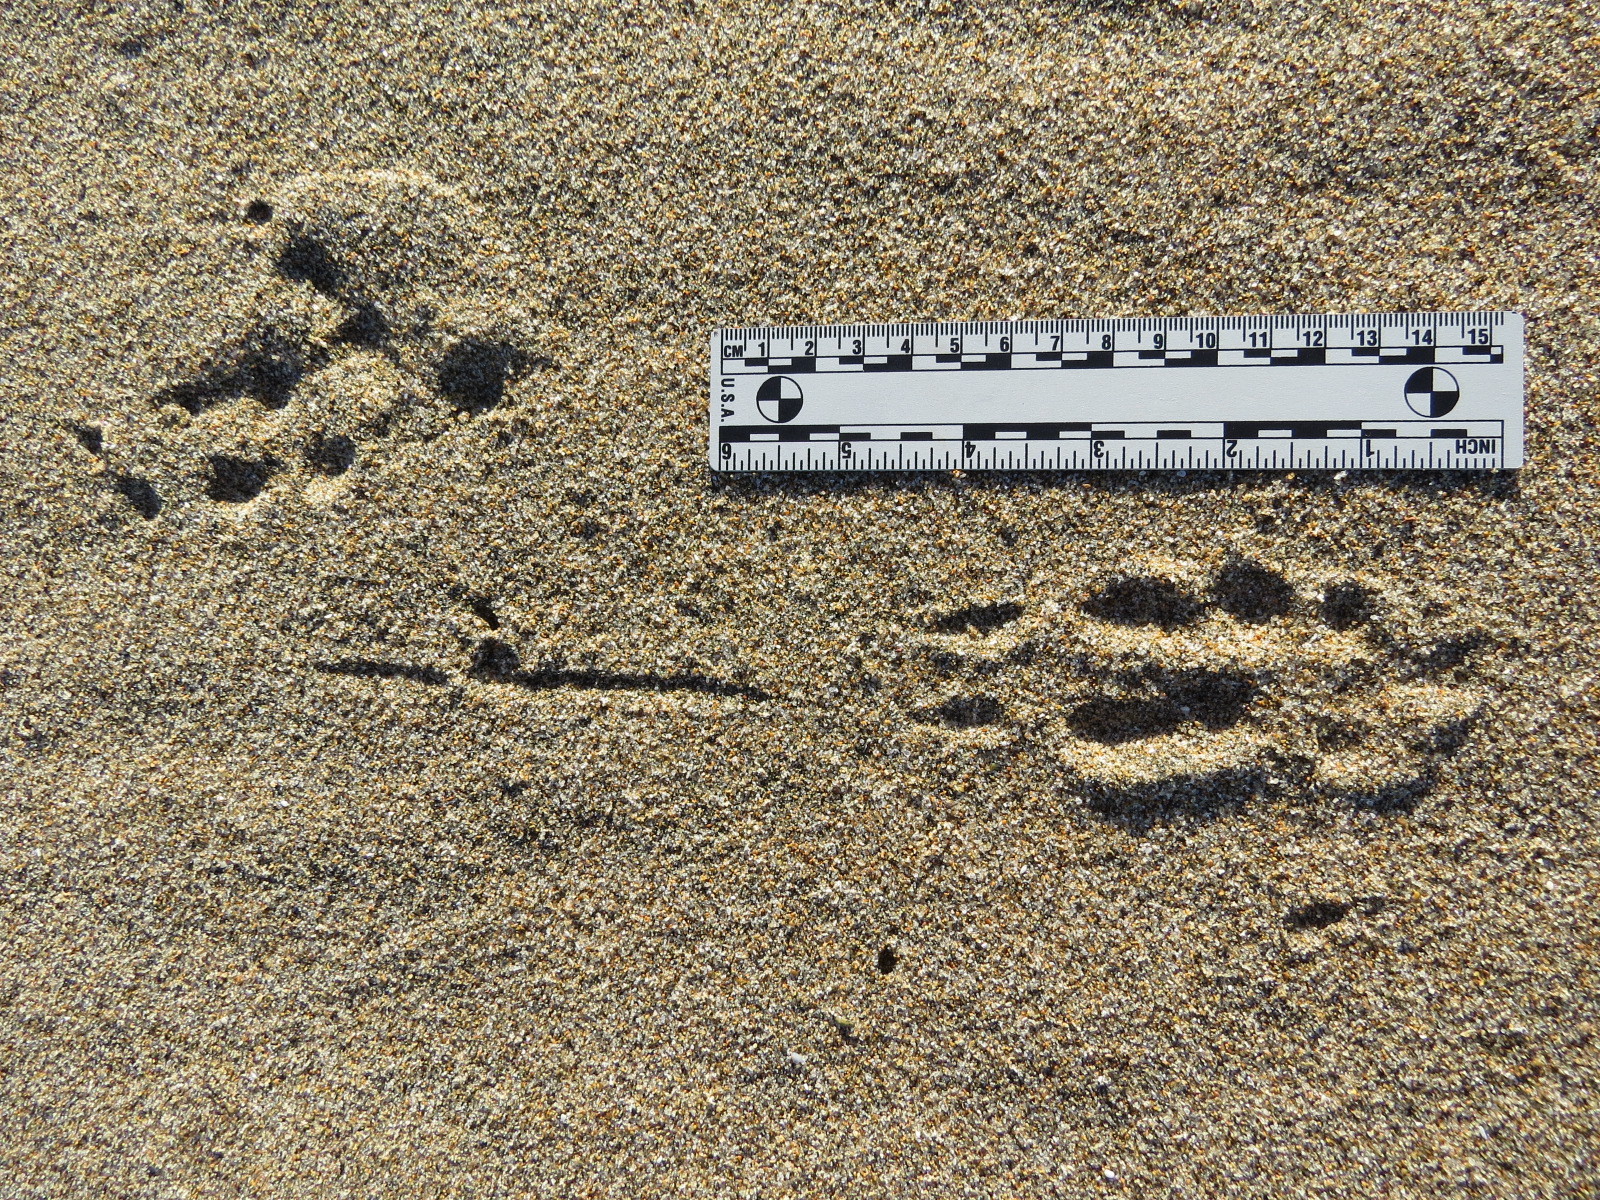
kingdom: Animalia
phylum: Chordata
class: Aves
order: Strigiformes
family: Strigidae
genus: Bubo
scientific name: Bubo virginianus
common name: Great horned owl
